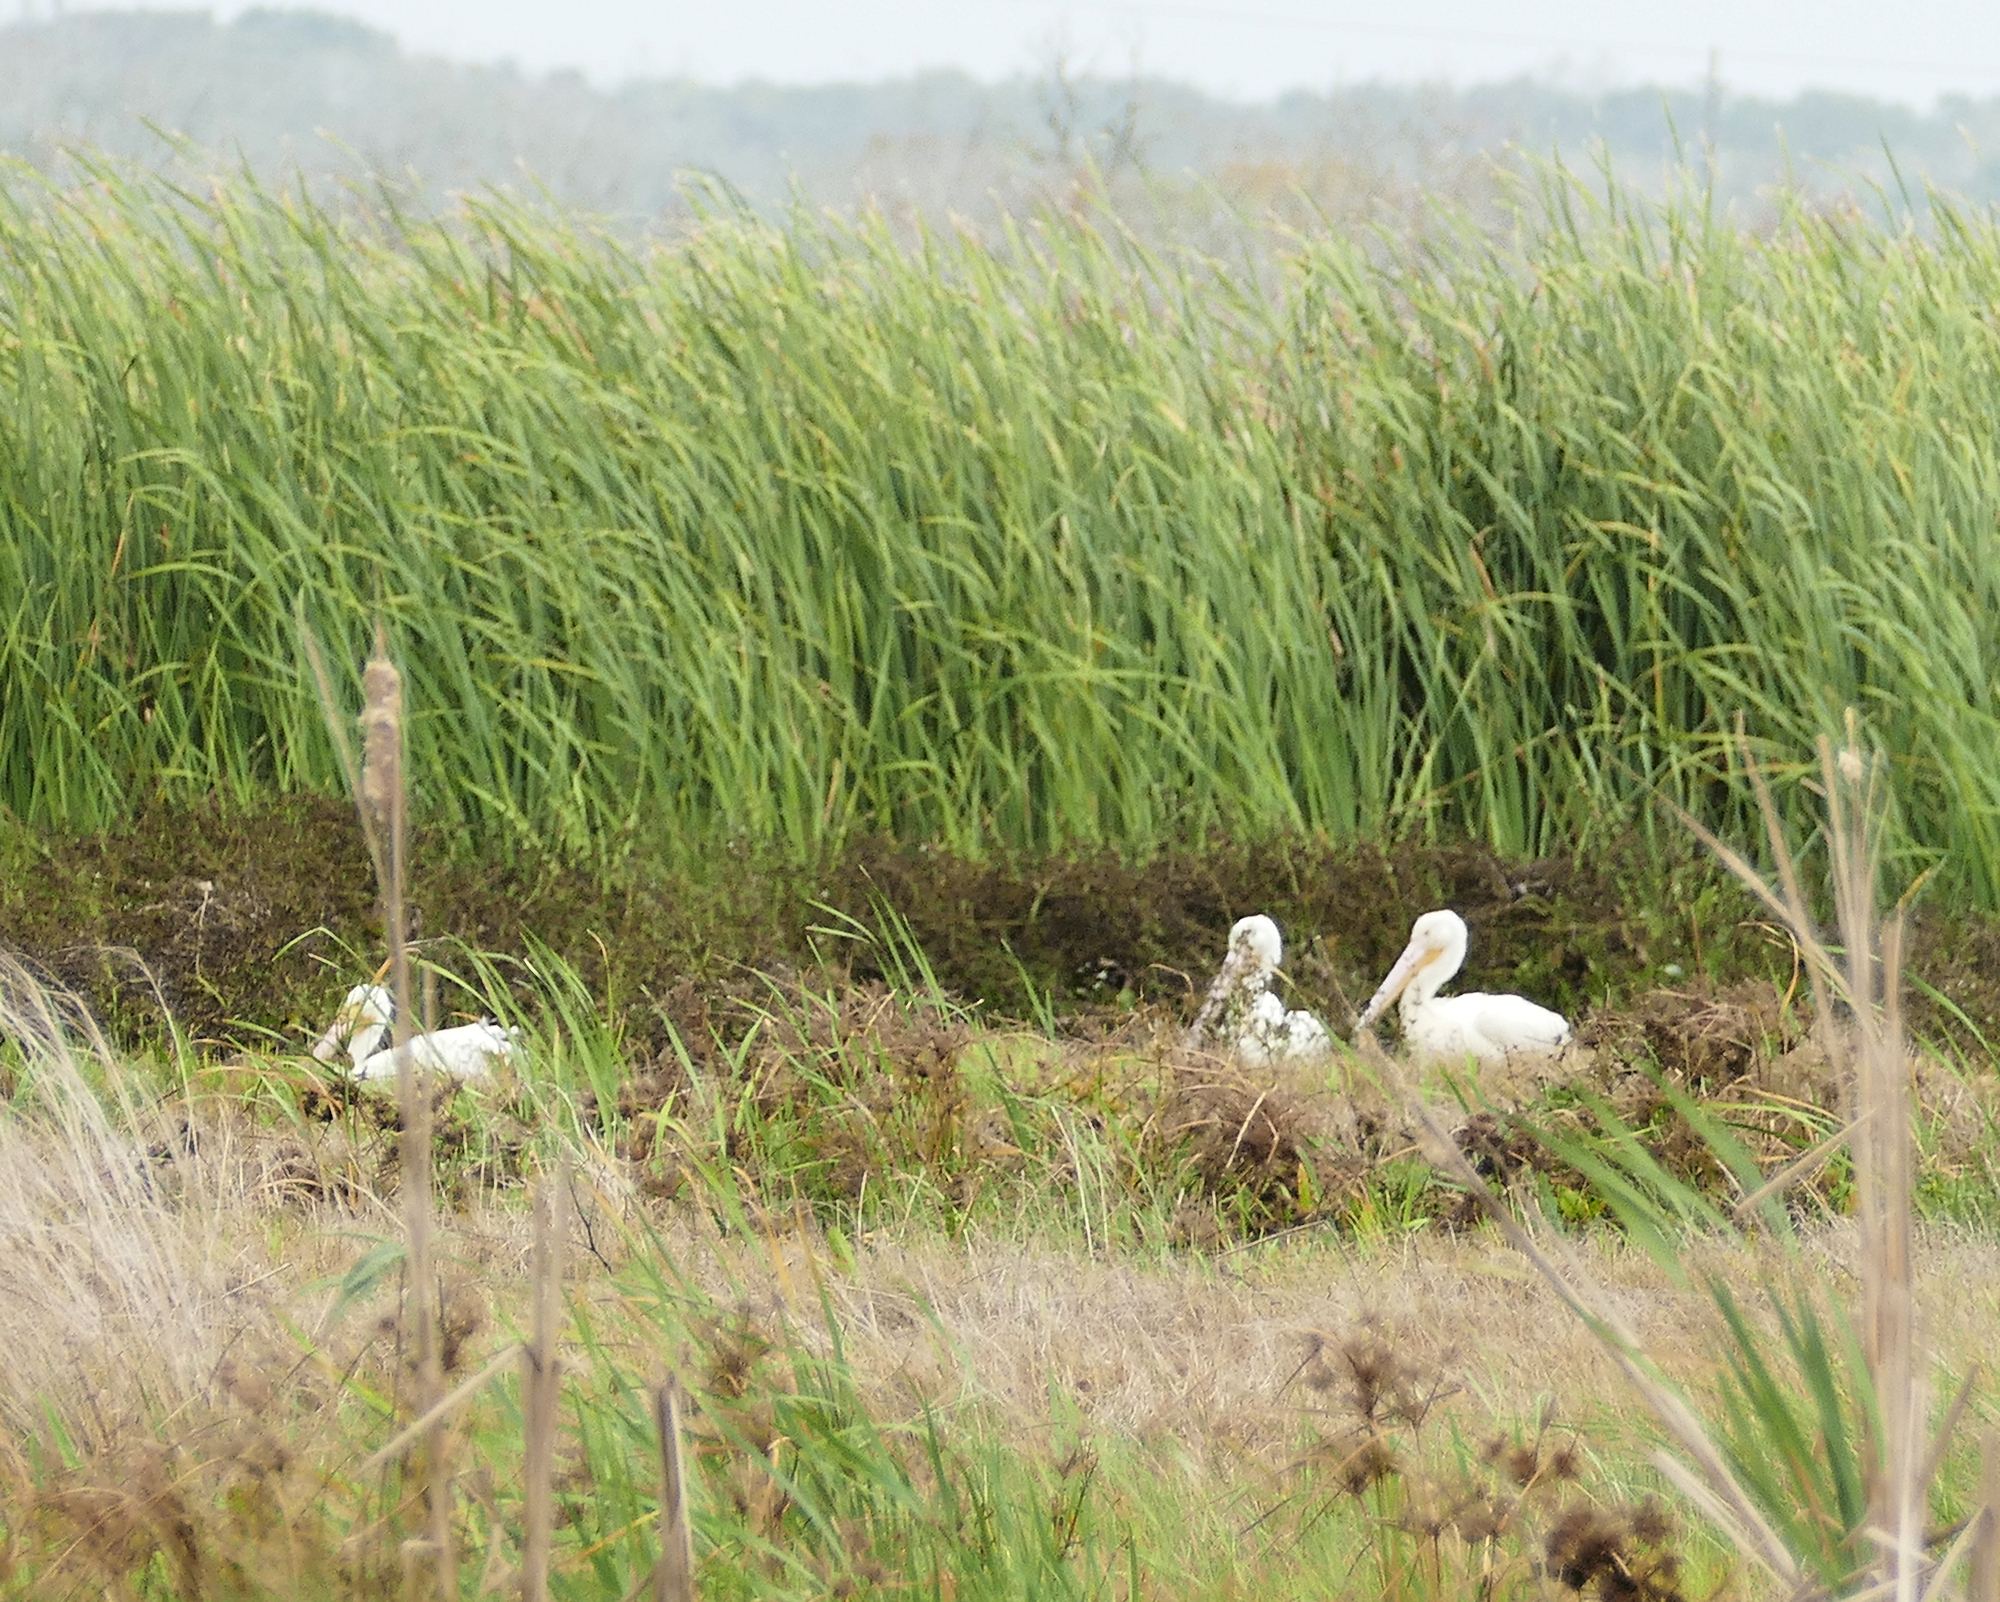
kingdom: Animalia
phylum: Chordata
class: Aves
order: Pelecaniformes
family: Pelecanidae
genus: Pelecanus
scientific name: Pelecanus erythrorhynchos
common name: American white pelican
